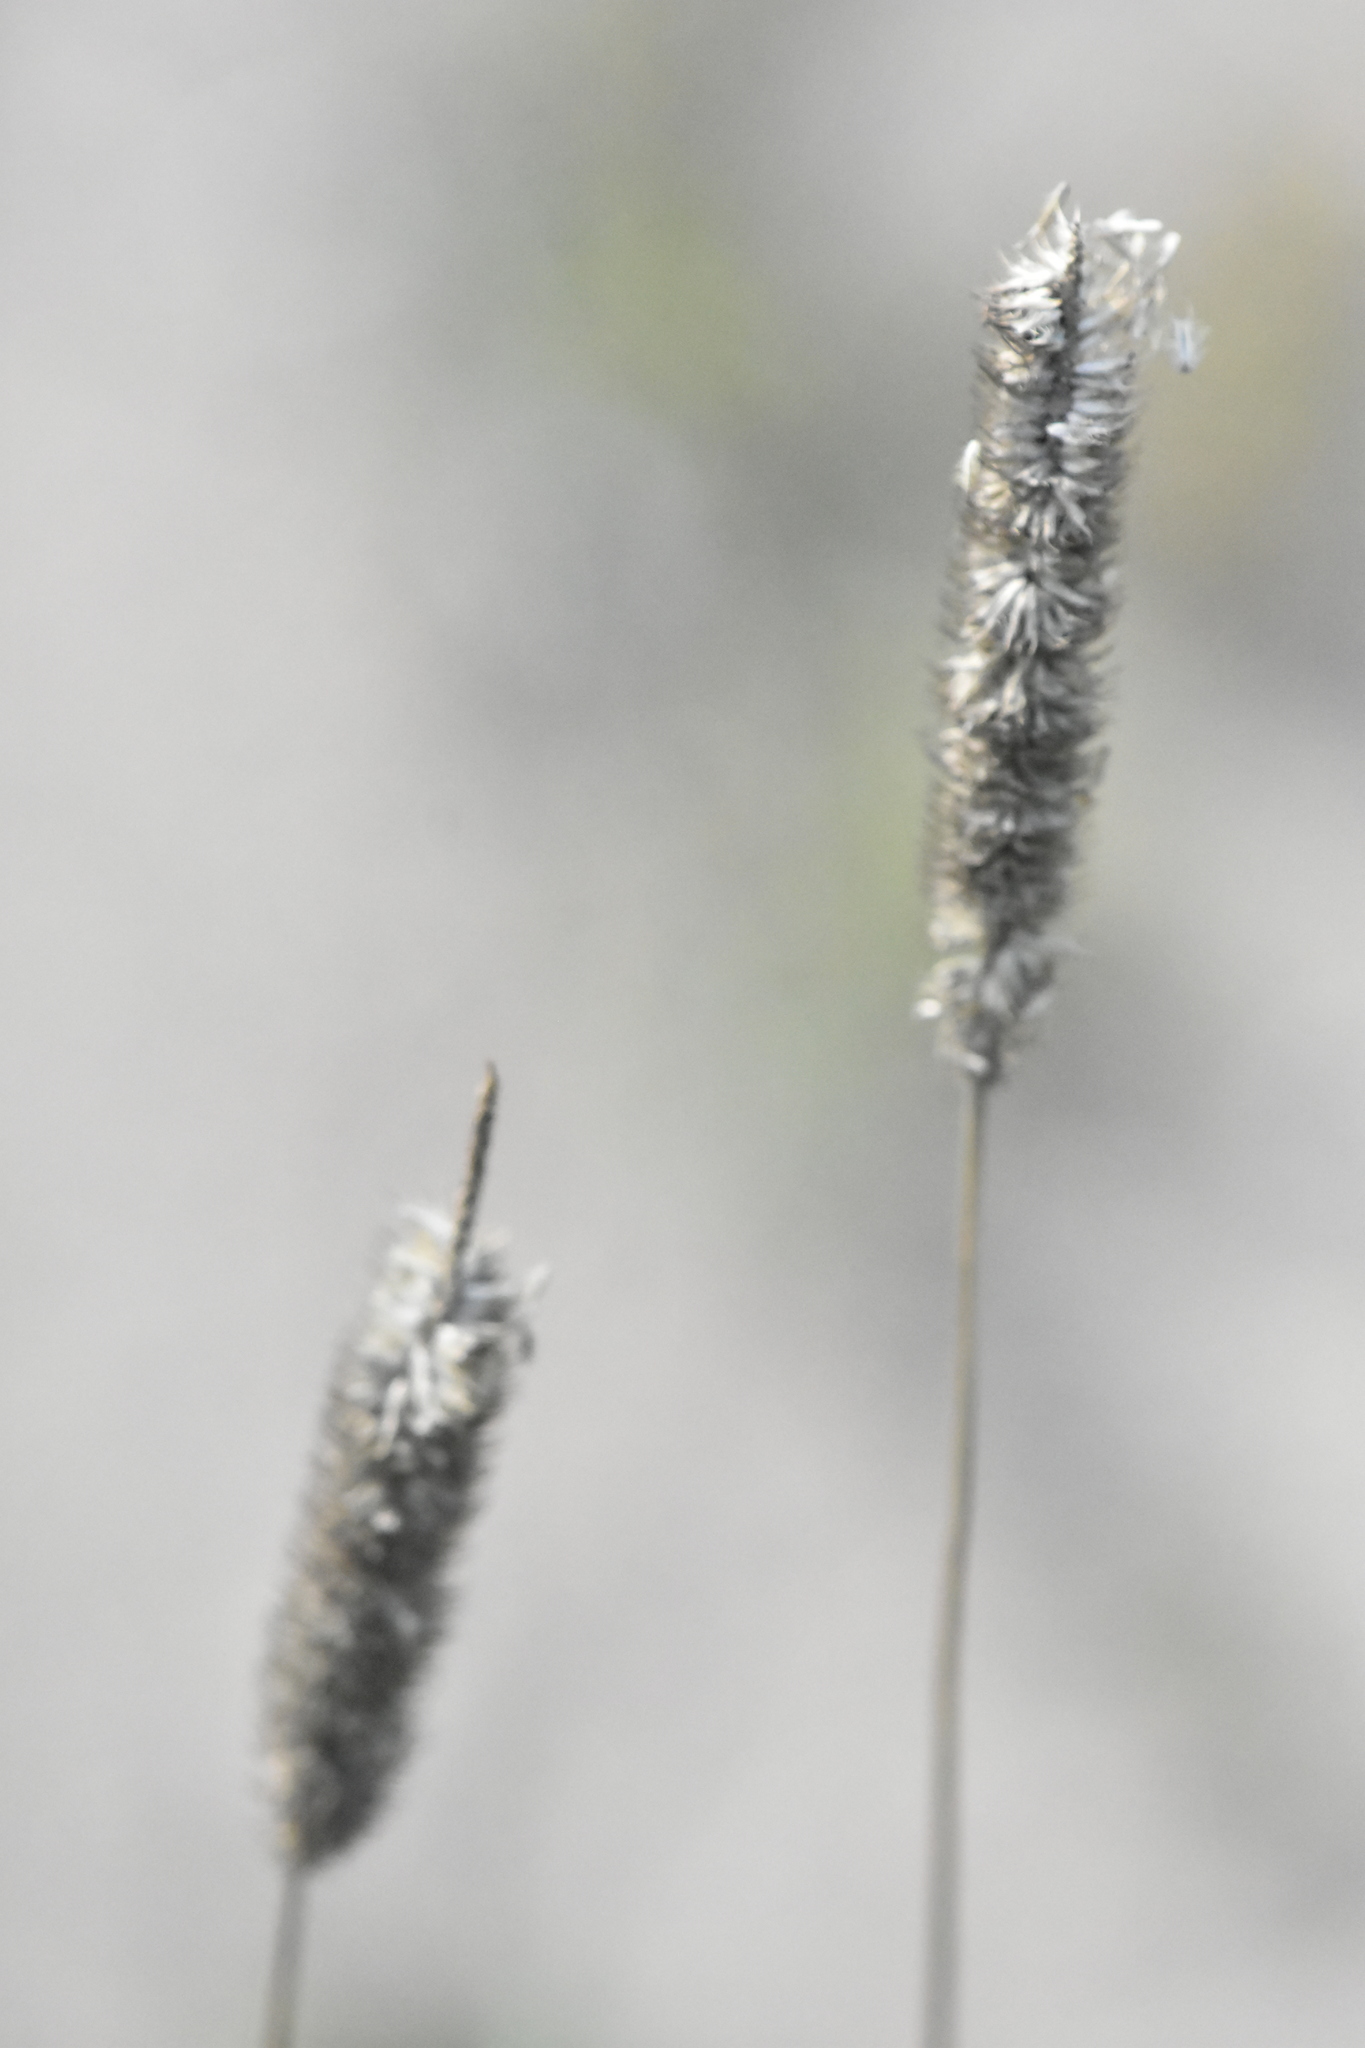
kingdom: Plantae
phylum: Tracheophyta
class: Liliopsida
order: Poales
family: Poaceae
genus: Phleum
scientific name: Phleum pratense
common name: Timothy grass
